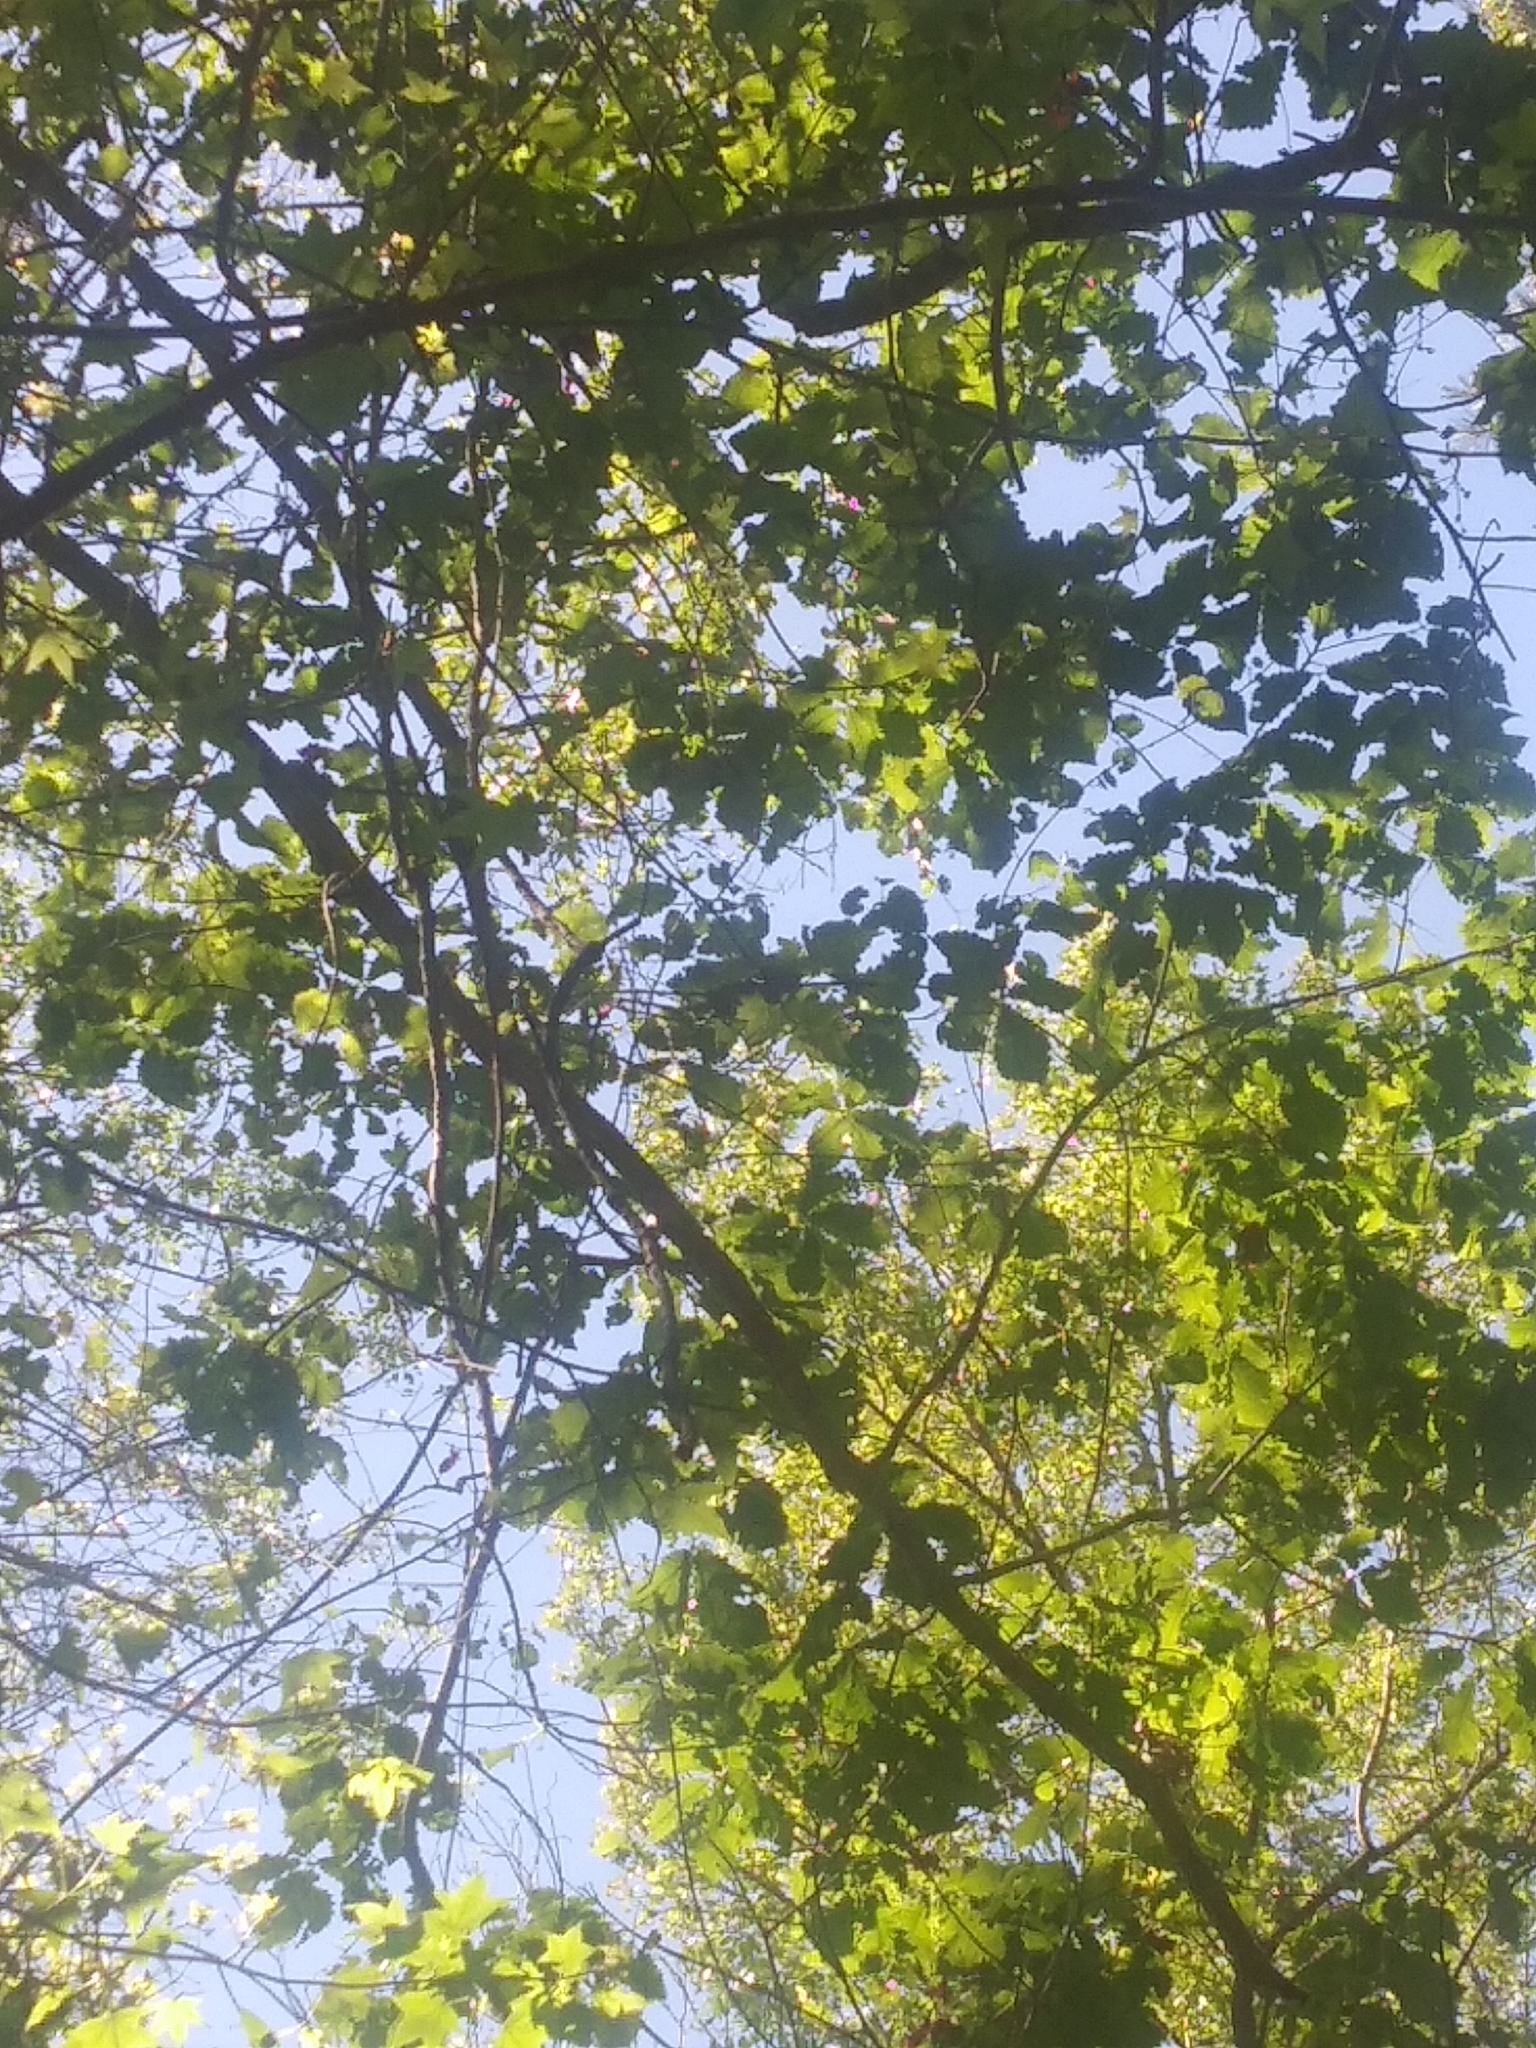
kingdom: Plantae
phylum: Tracheophyta
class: Magnoliopsida
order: Fagales
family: Fagaceae
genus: Quercus
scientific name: Quercus michauxii
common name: Swamp chestnut oak
